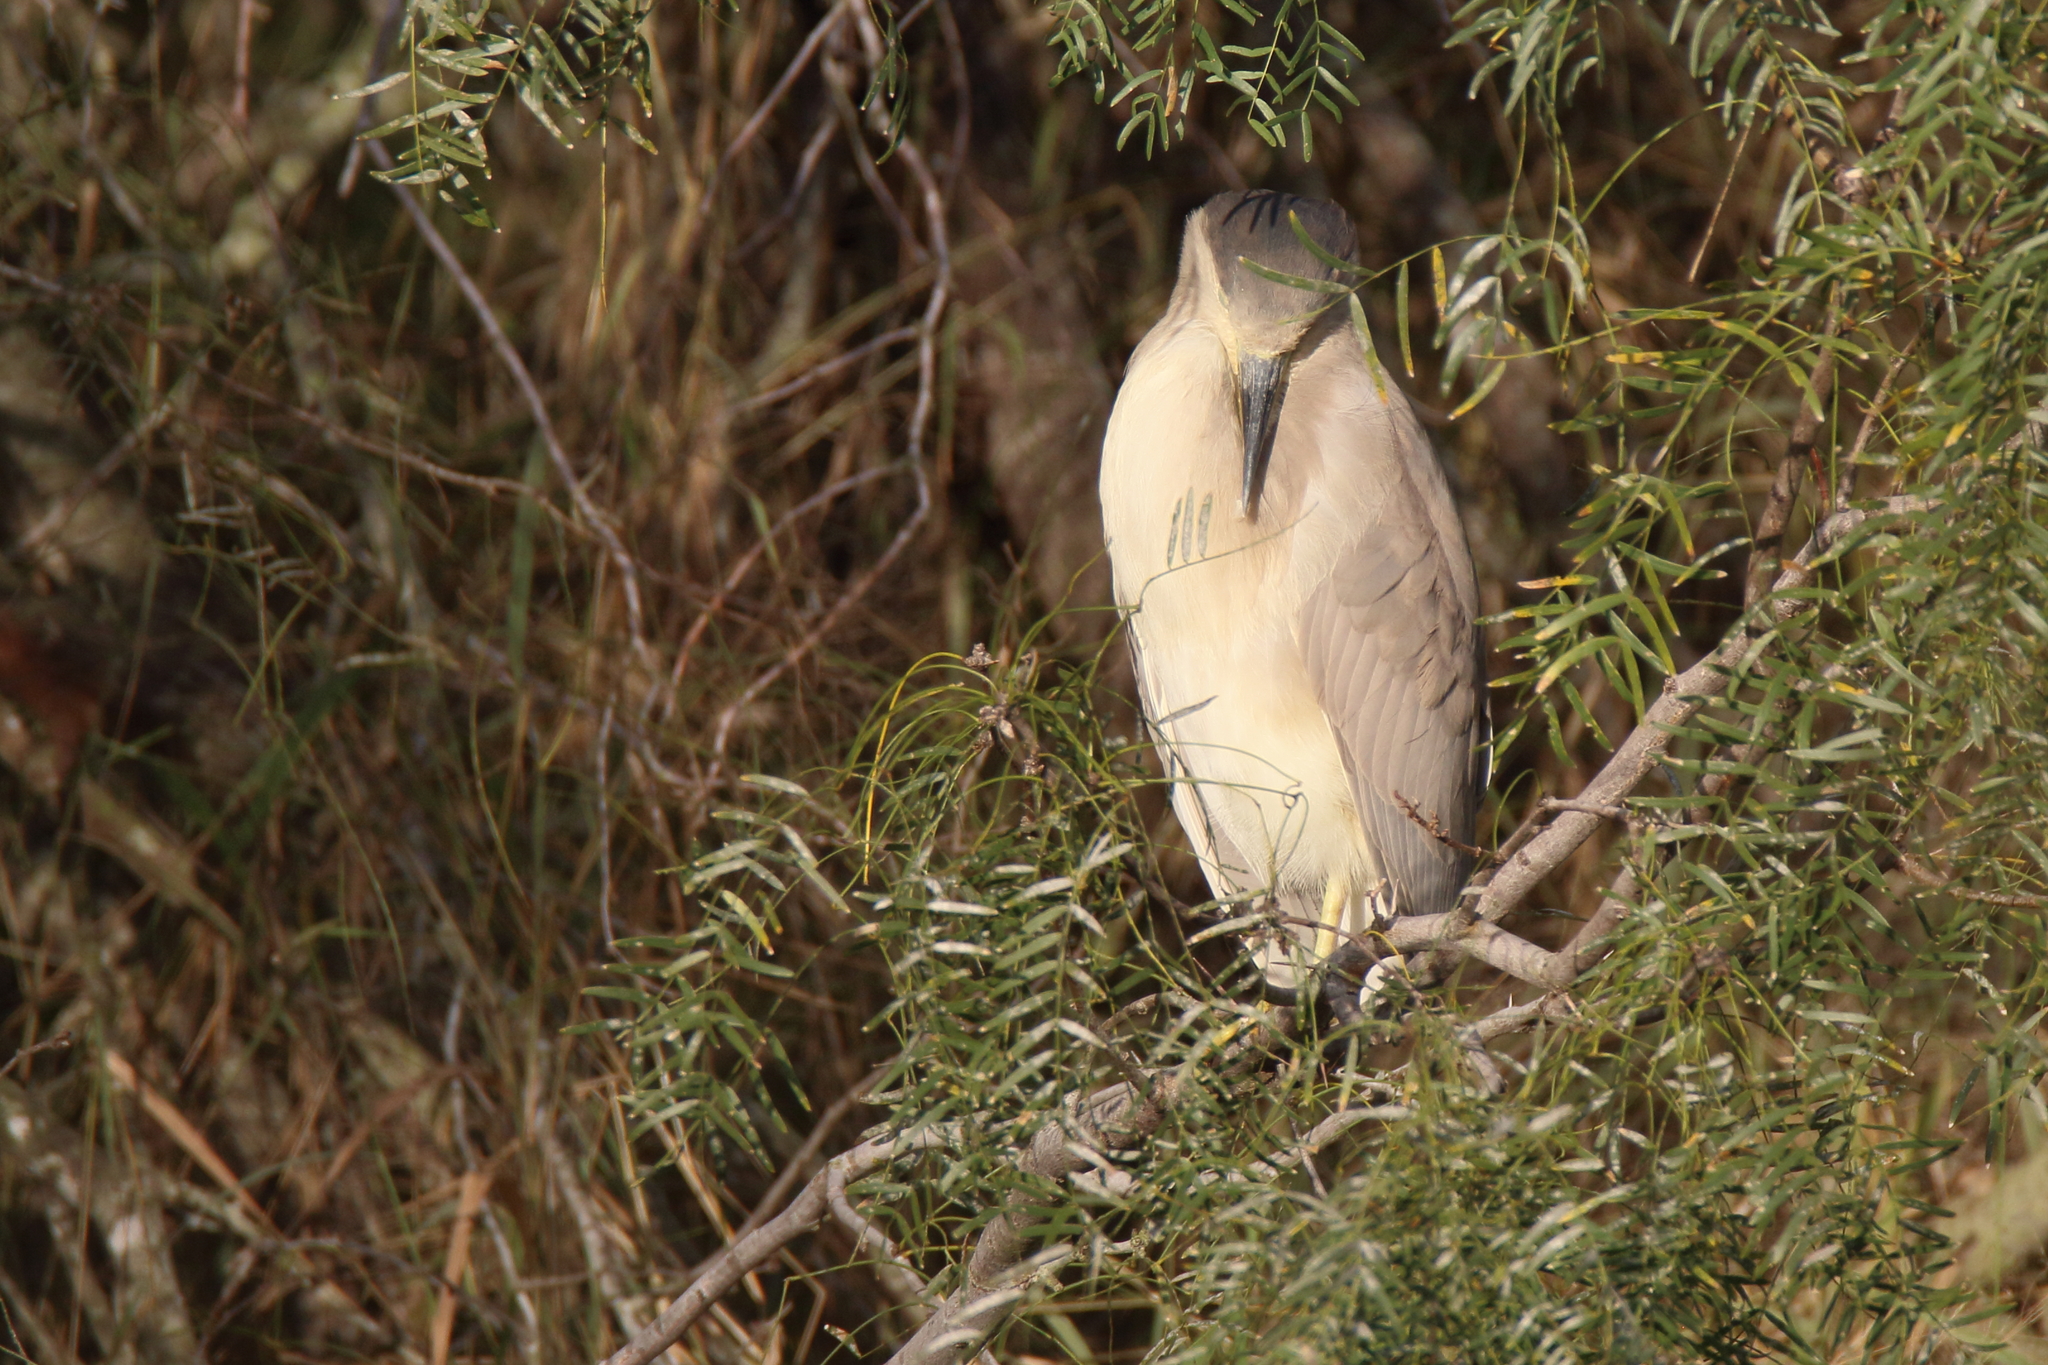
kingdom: Animalia
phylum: Chordata
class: Aves
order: Pelecaniformes
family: Ardeidae
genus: Nycticorax
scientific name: Nycticorax nycticorax
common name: Black-crowned night heron
